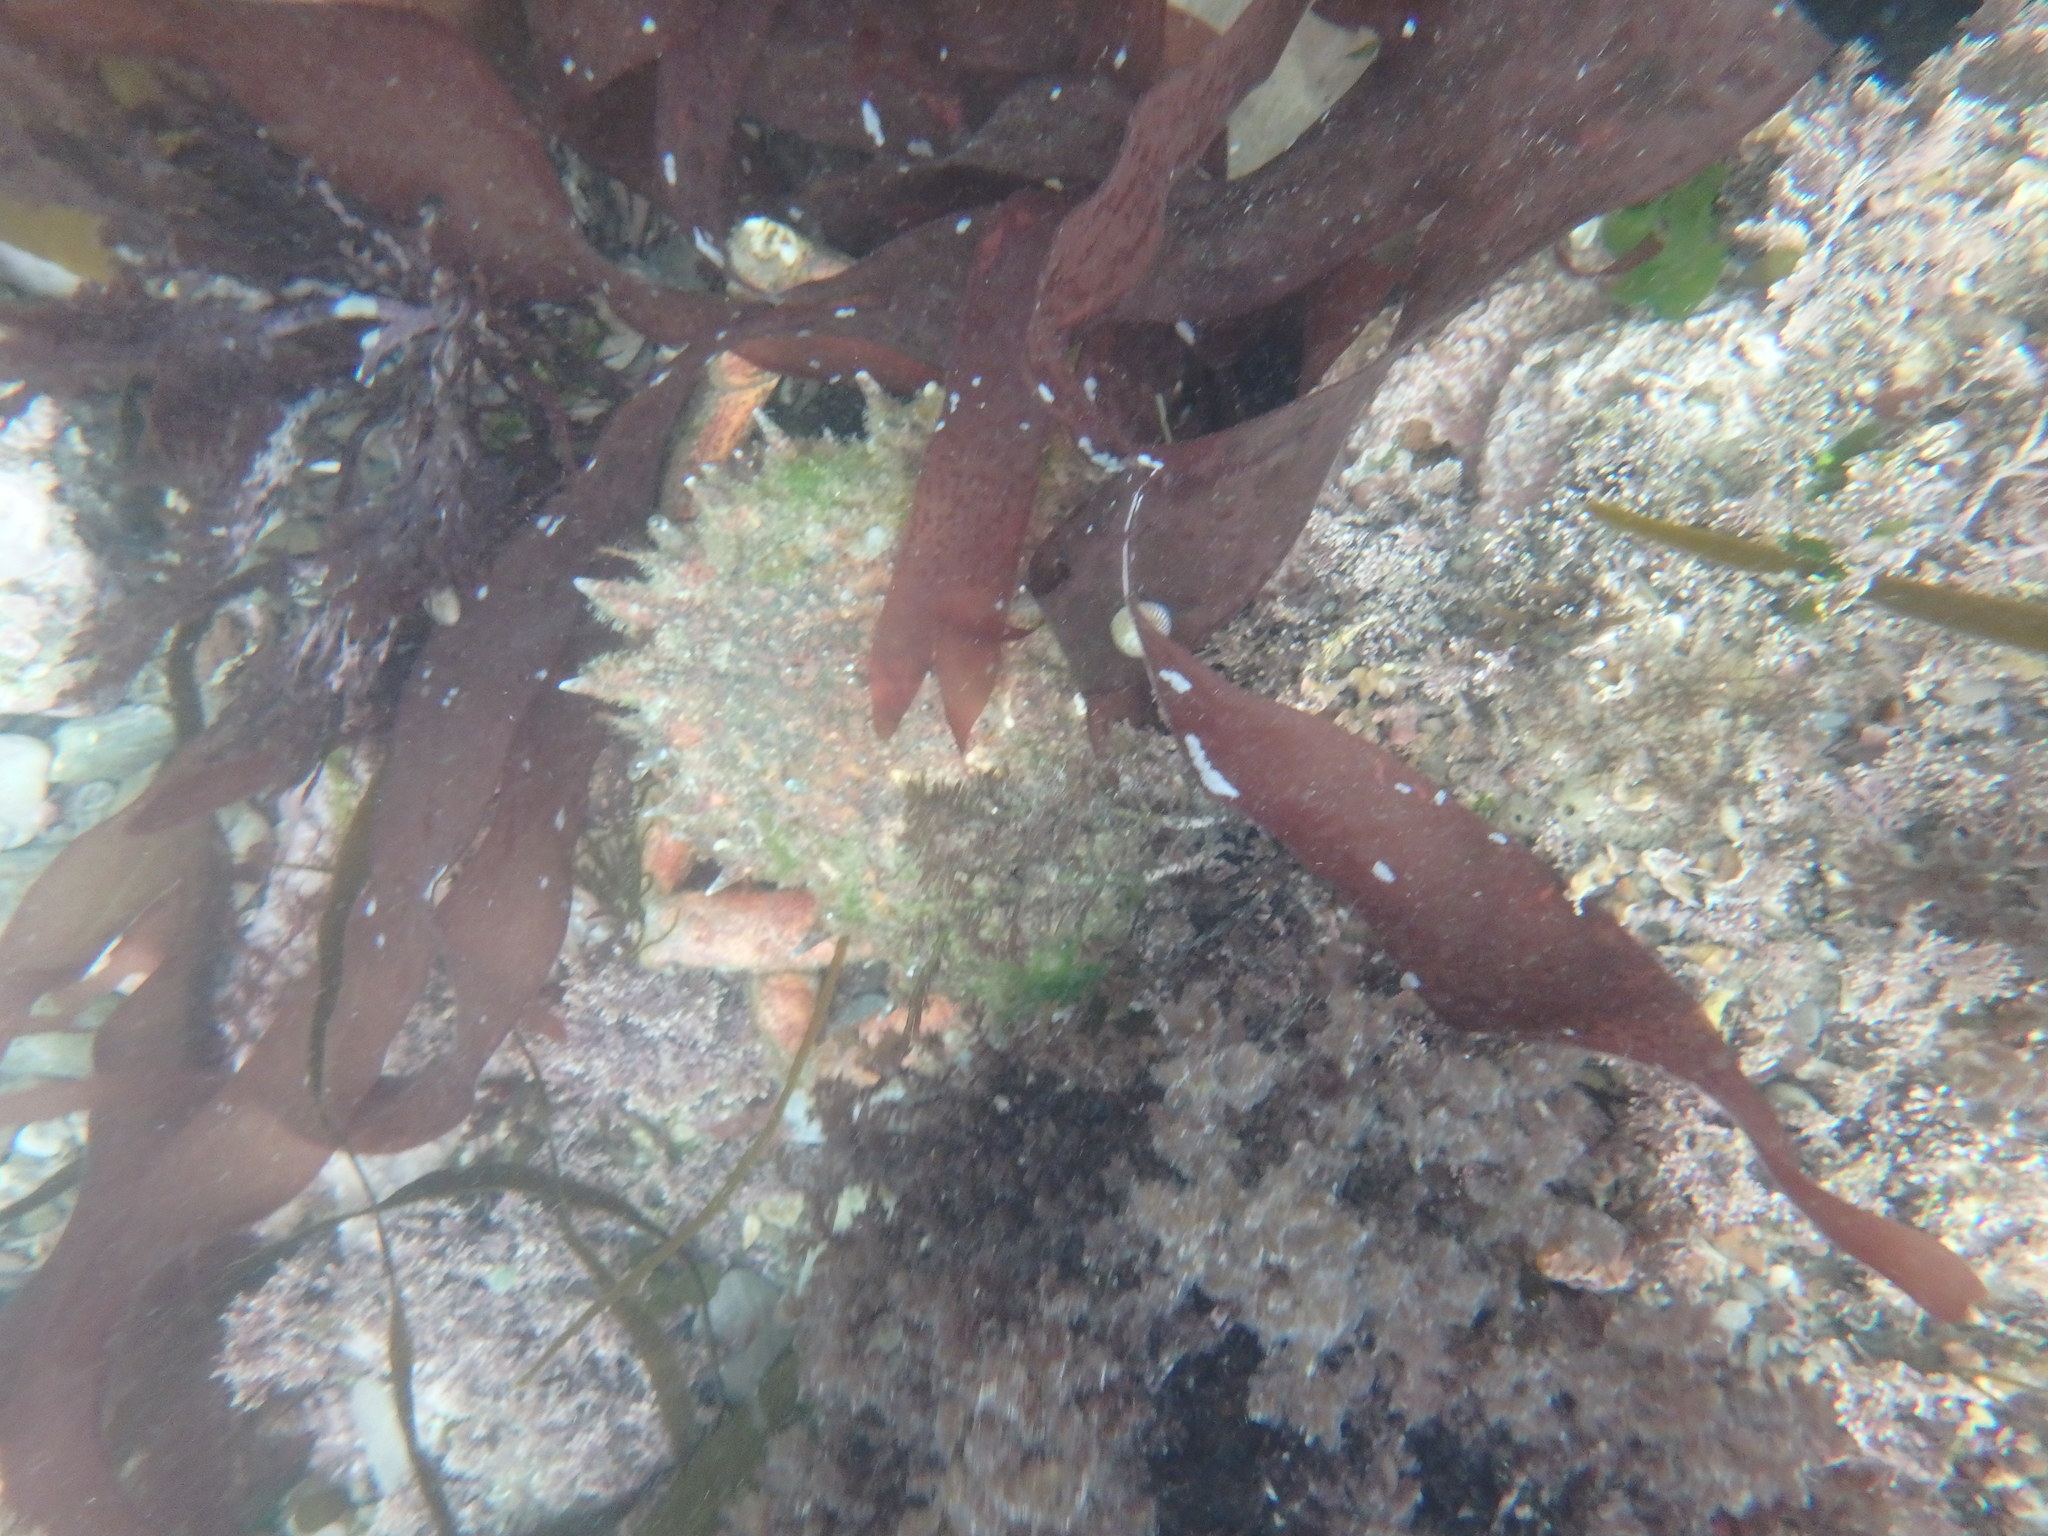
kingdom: Animalia
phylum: Arthropoda
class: Malacostraca
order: Decapoda
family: Majidae
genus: Maja
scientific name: Maja brachydactyla
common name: Common spider crab
